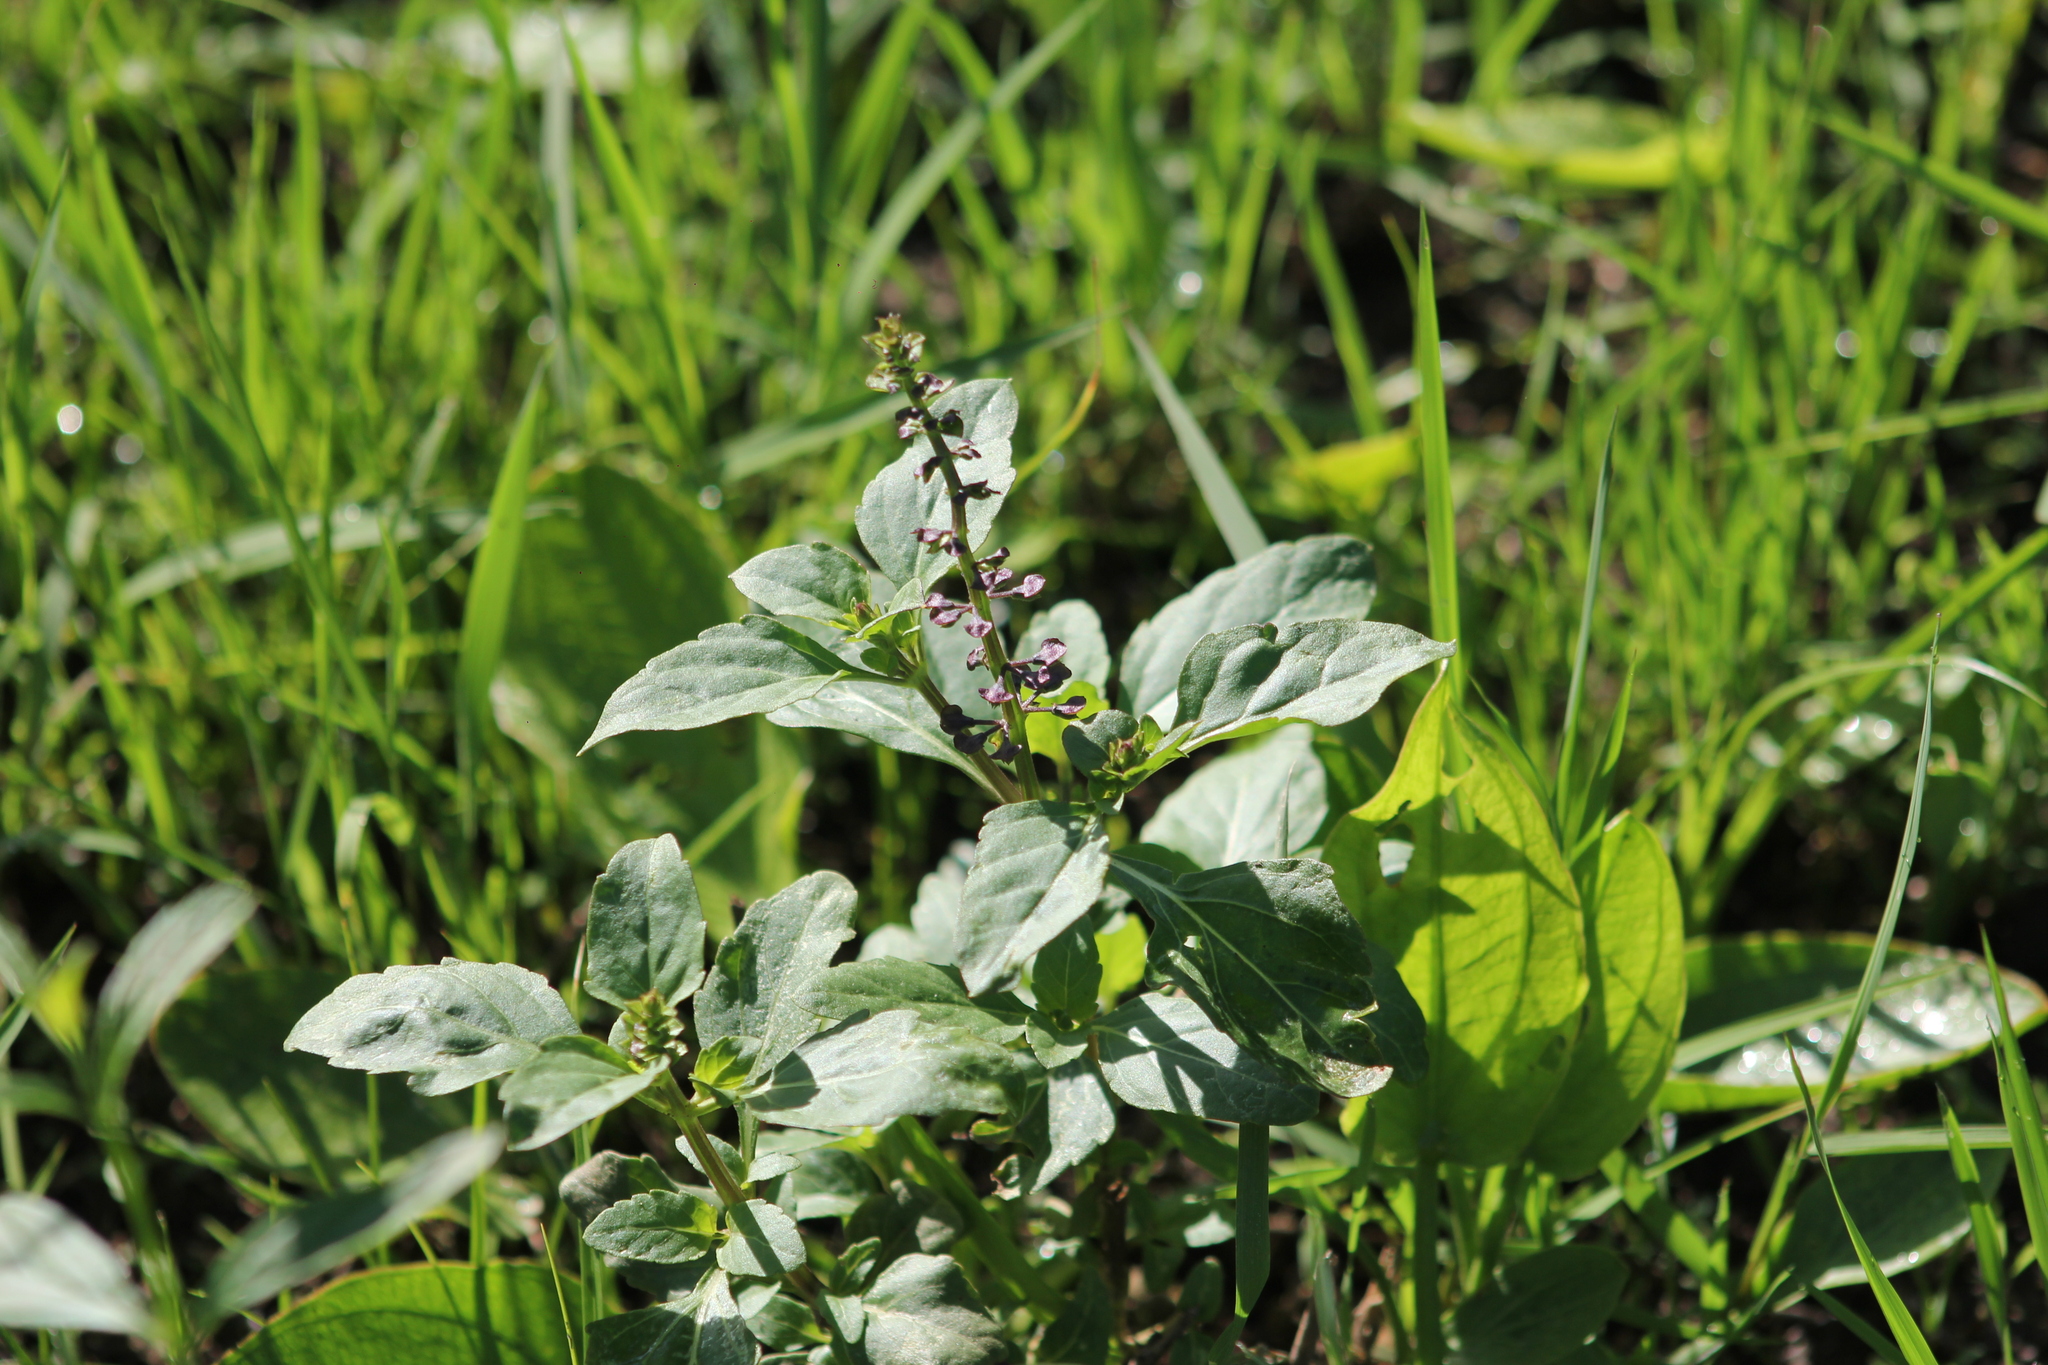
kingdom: Plantae
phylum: Tracheophyta
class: Magnoliopsida
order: Lamiales
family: Lamiaceae
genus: Ocimum
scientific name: Ocimum carnosum
